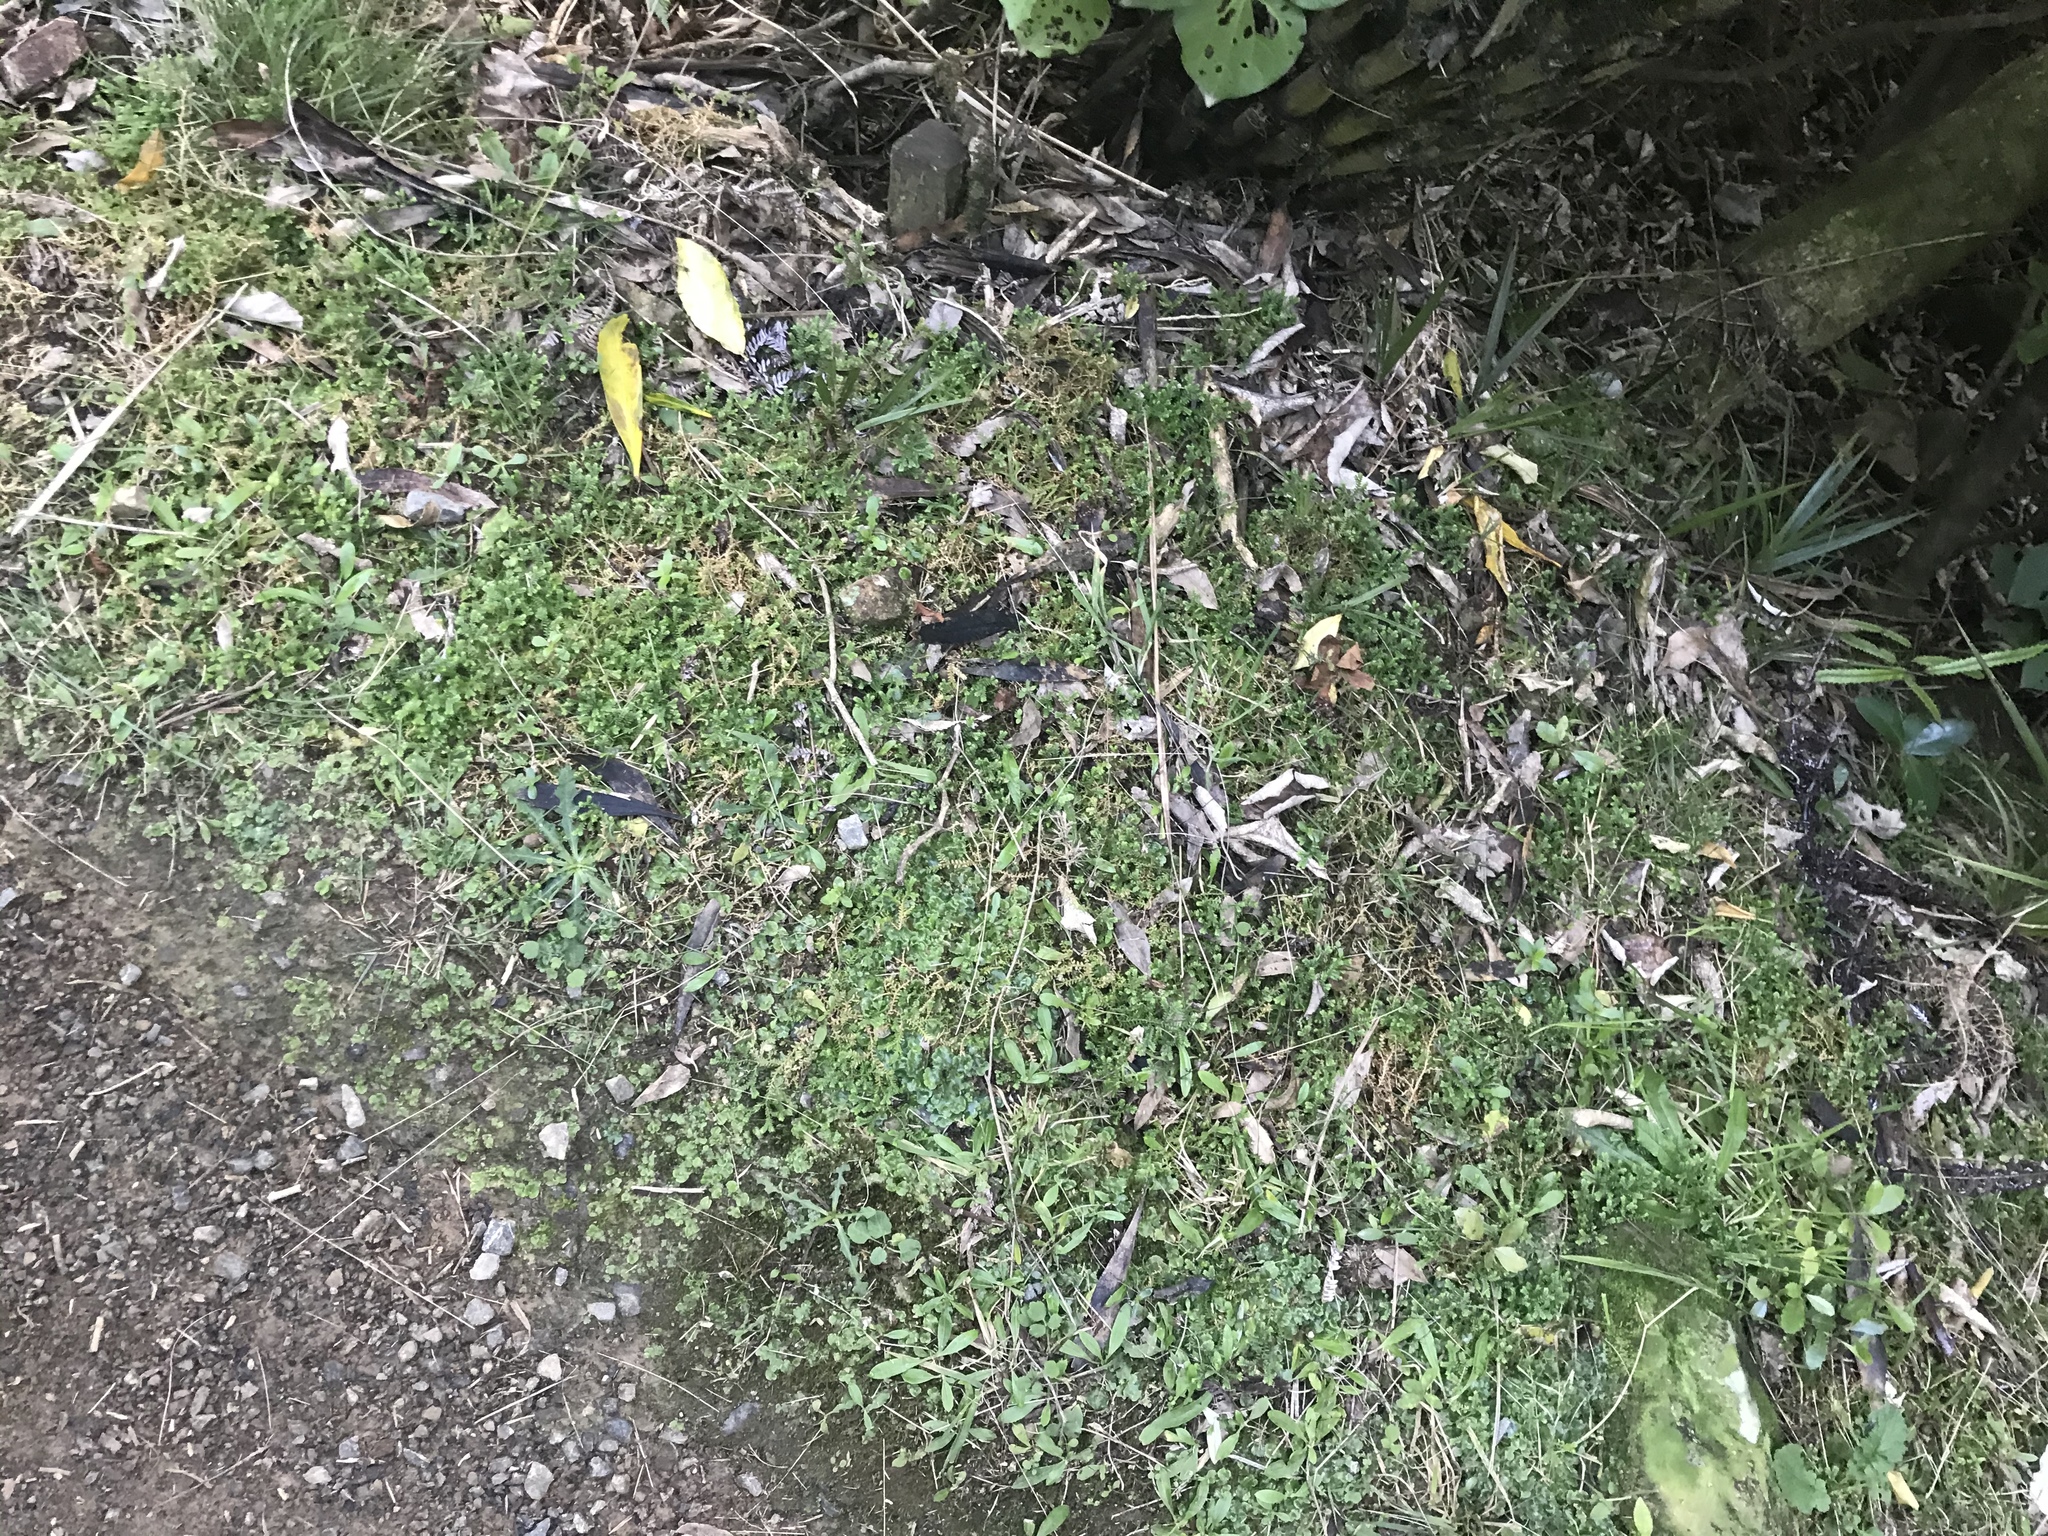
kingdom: Plantae
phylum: Tracheophyta
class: Lycopodiopsida
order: Selaginellales
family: Selaginellaceae
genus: Selaginella
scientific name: Selaginella kraussiana
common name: Krauss' spikemoss
